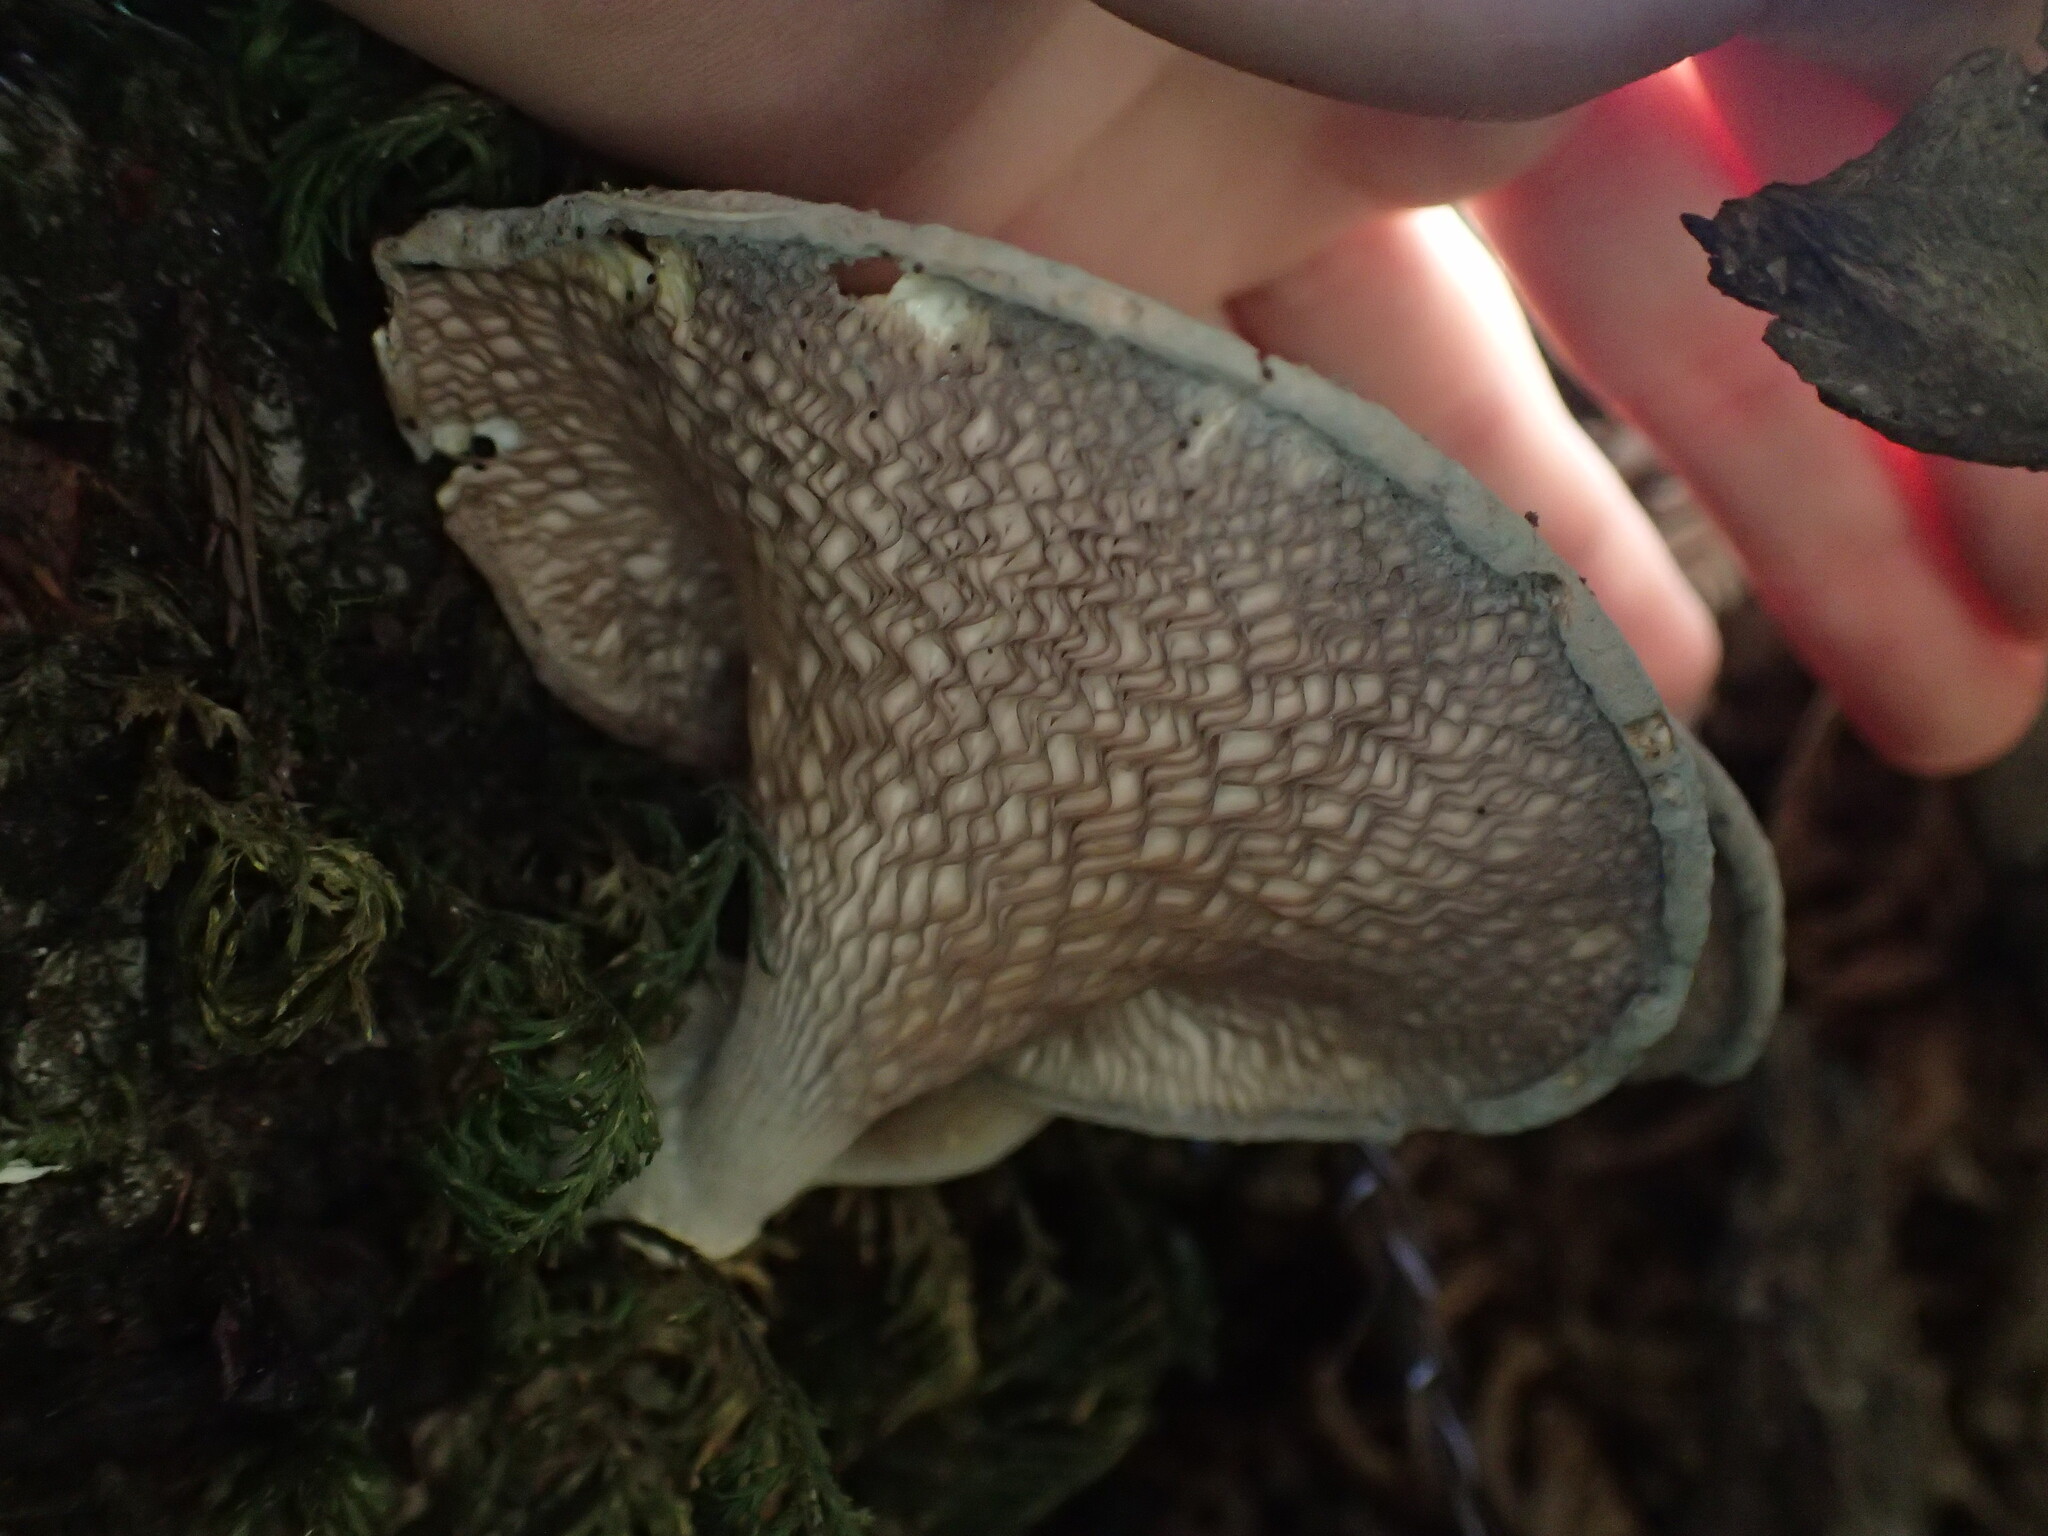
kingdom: Fungi
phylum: Basidiomycota
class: Agaricomycetes
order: Polyporales
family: Panaceae
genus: Panus
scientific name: Panus conchatus
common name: Lilac oysterling
